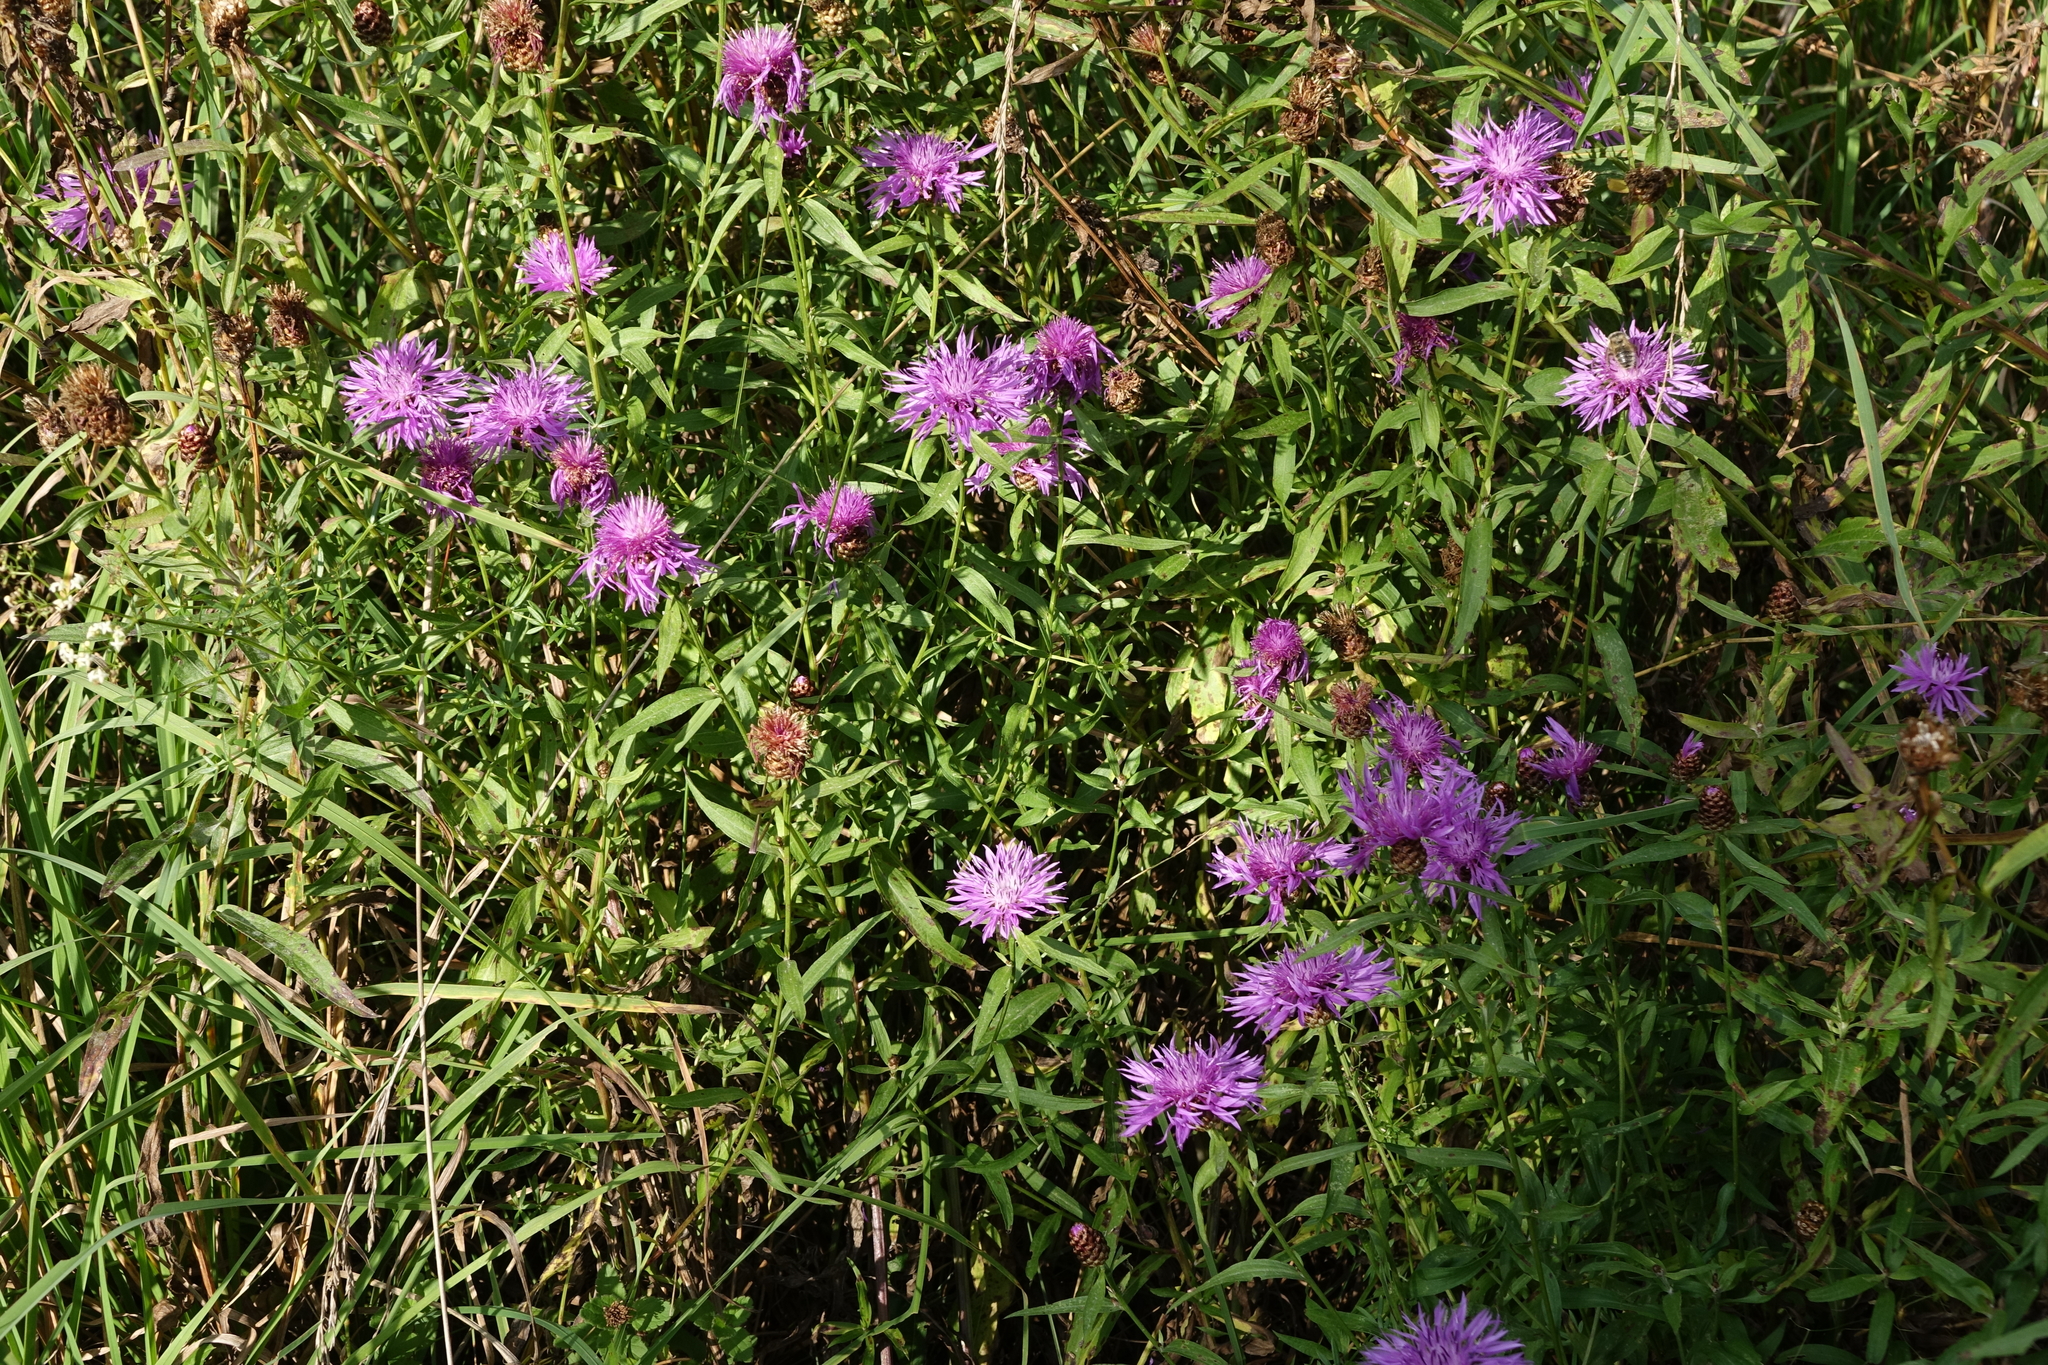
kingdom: Plantae
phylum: Tracheophyta
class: Magnoliopsida
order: Asterales
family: Asteraceae
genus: Centaurea
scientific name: Centaurea jacea
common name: Brown knapweed
